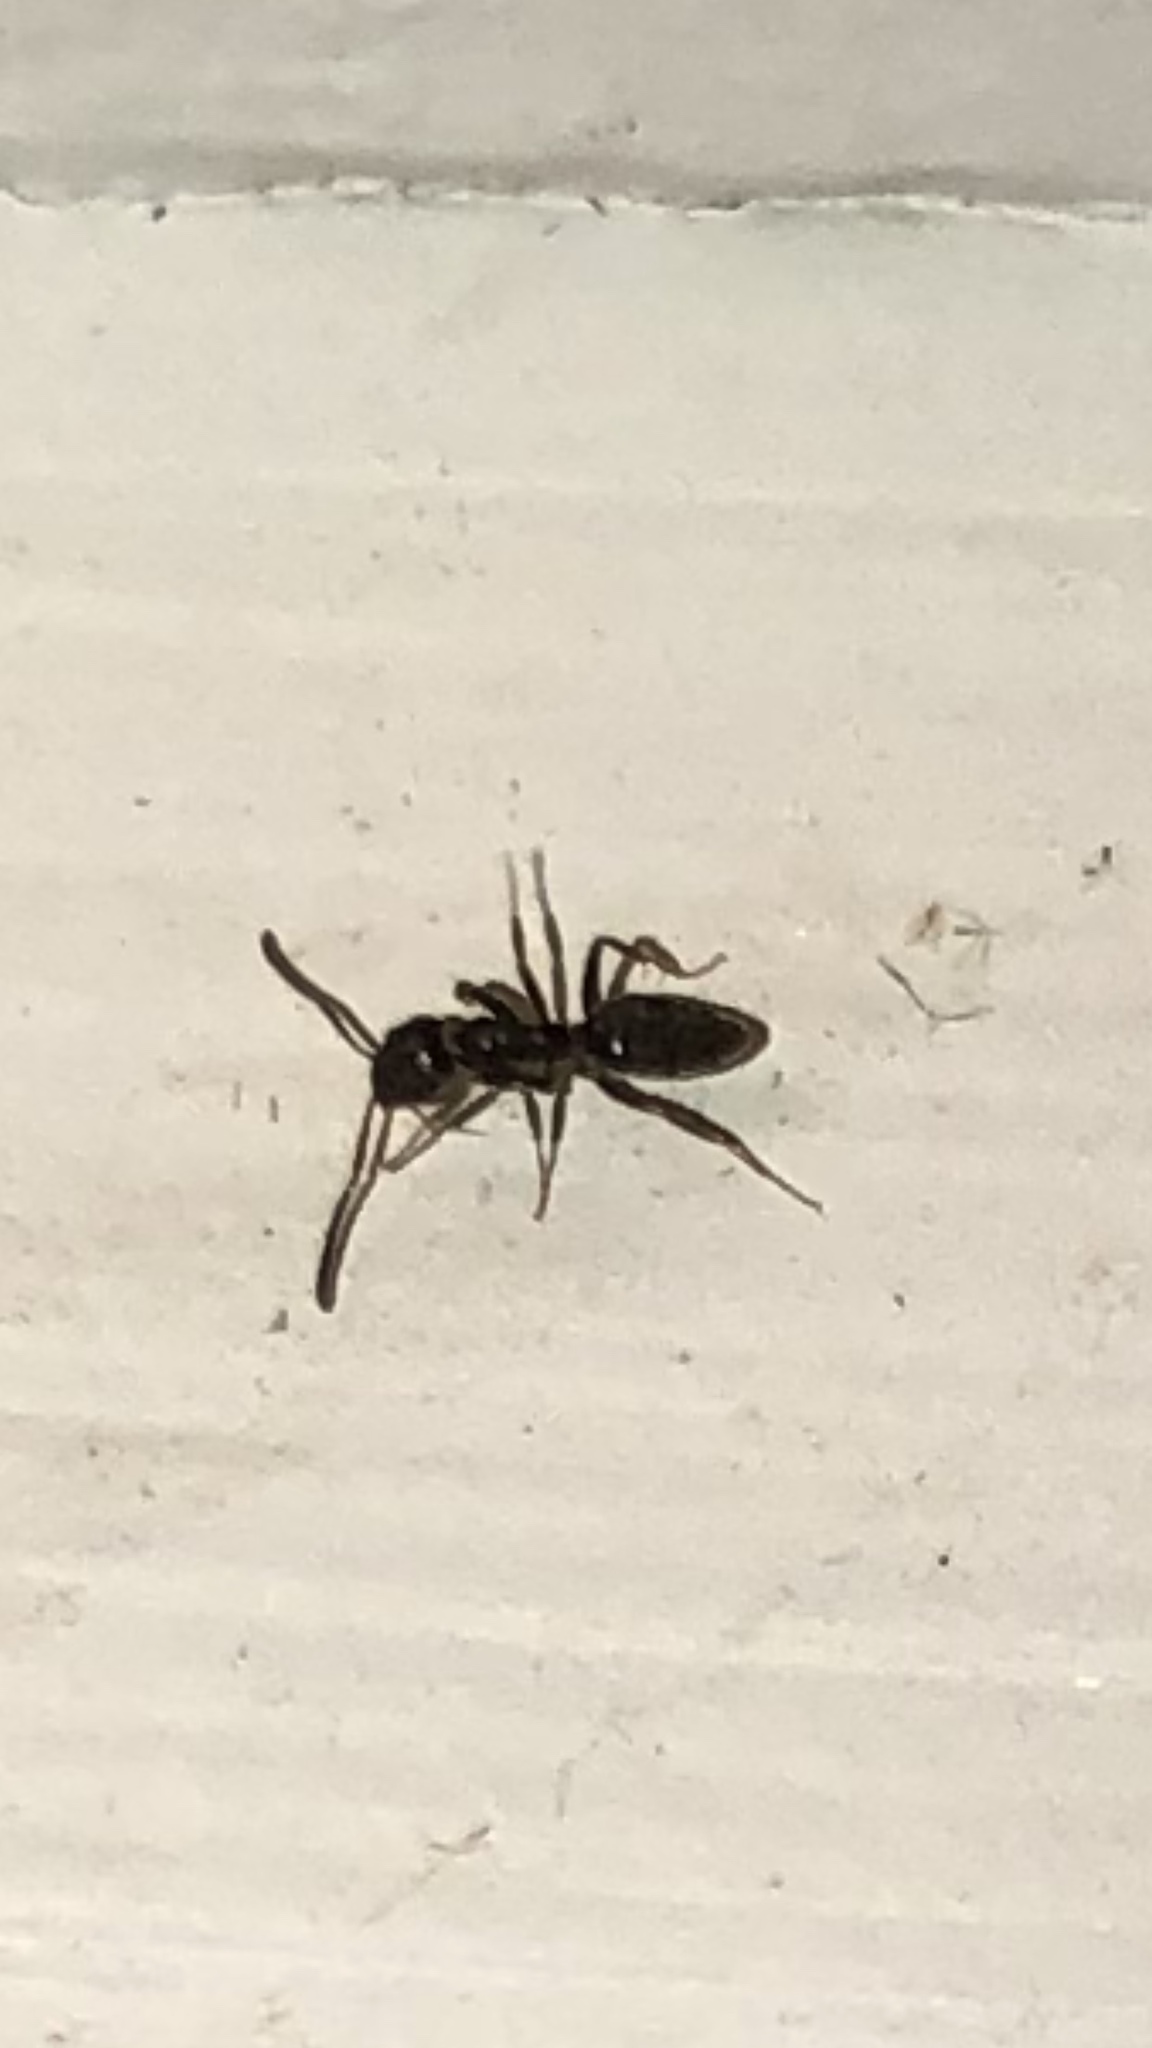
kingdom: Animalia
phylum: Arthropoda
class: Insecta
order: Hymenoptera
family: Formicidae
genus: Tapinoma
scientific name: Tapinoma sessile
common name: Odorous house ant
